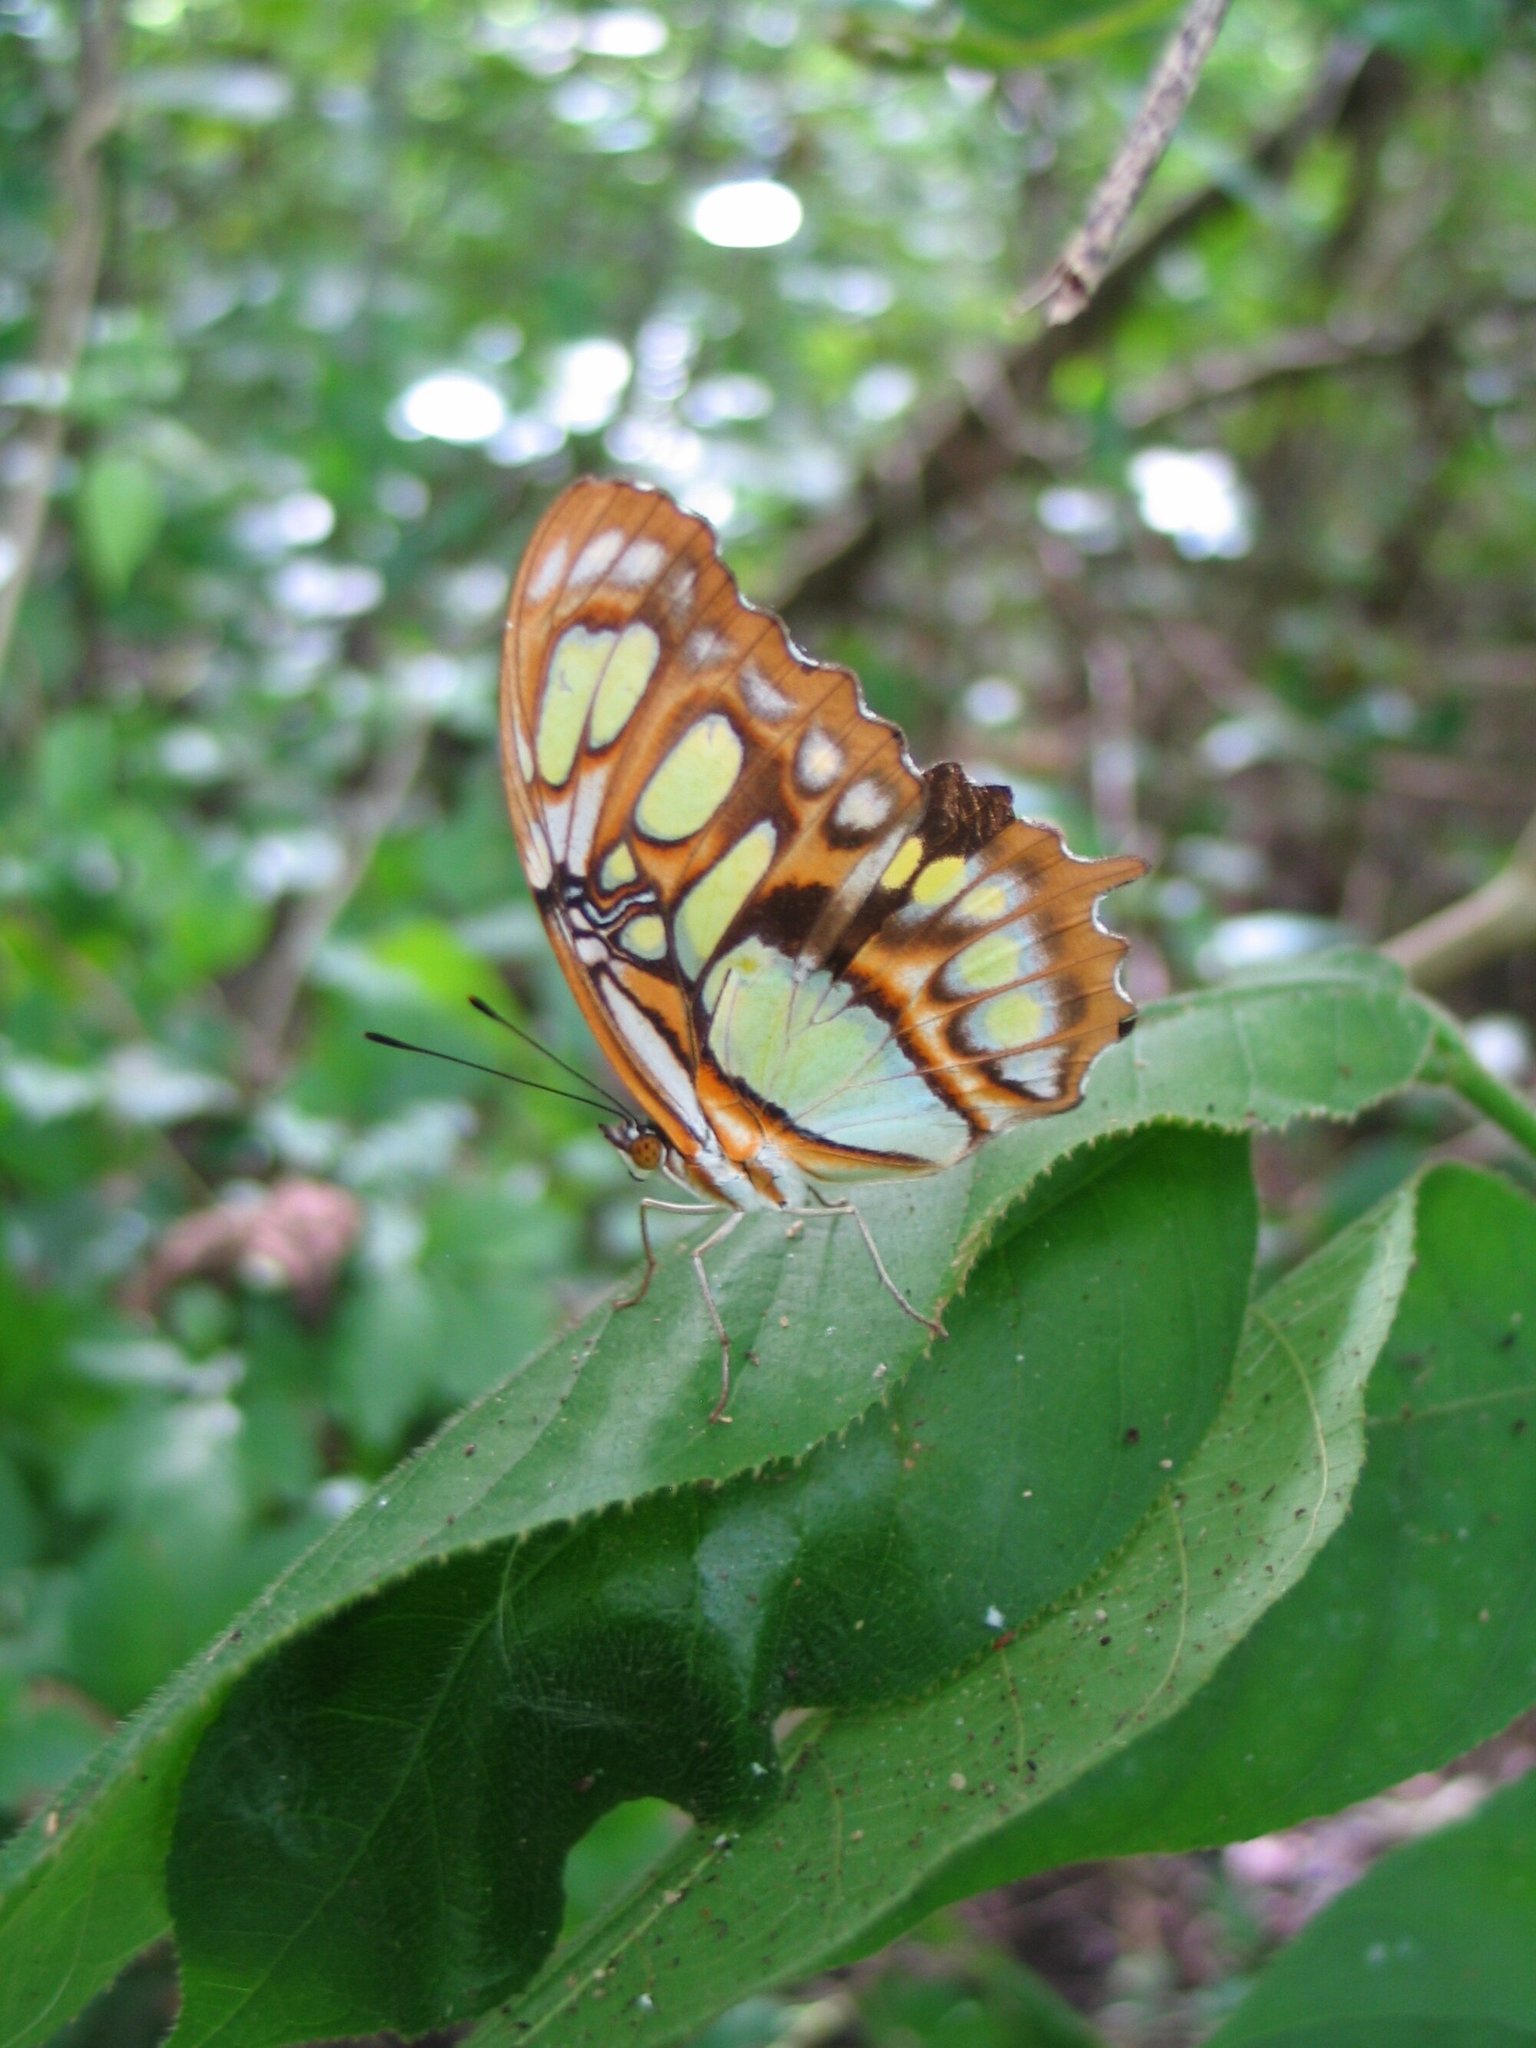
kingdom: Animalia
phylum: Arthropoda
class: Insecta
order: Lepidoptera
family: Nymphalidae
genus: Siproeta
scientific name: Siproeta stelenes
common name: Malachite
